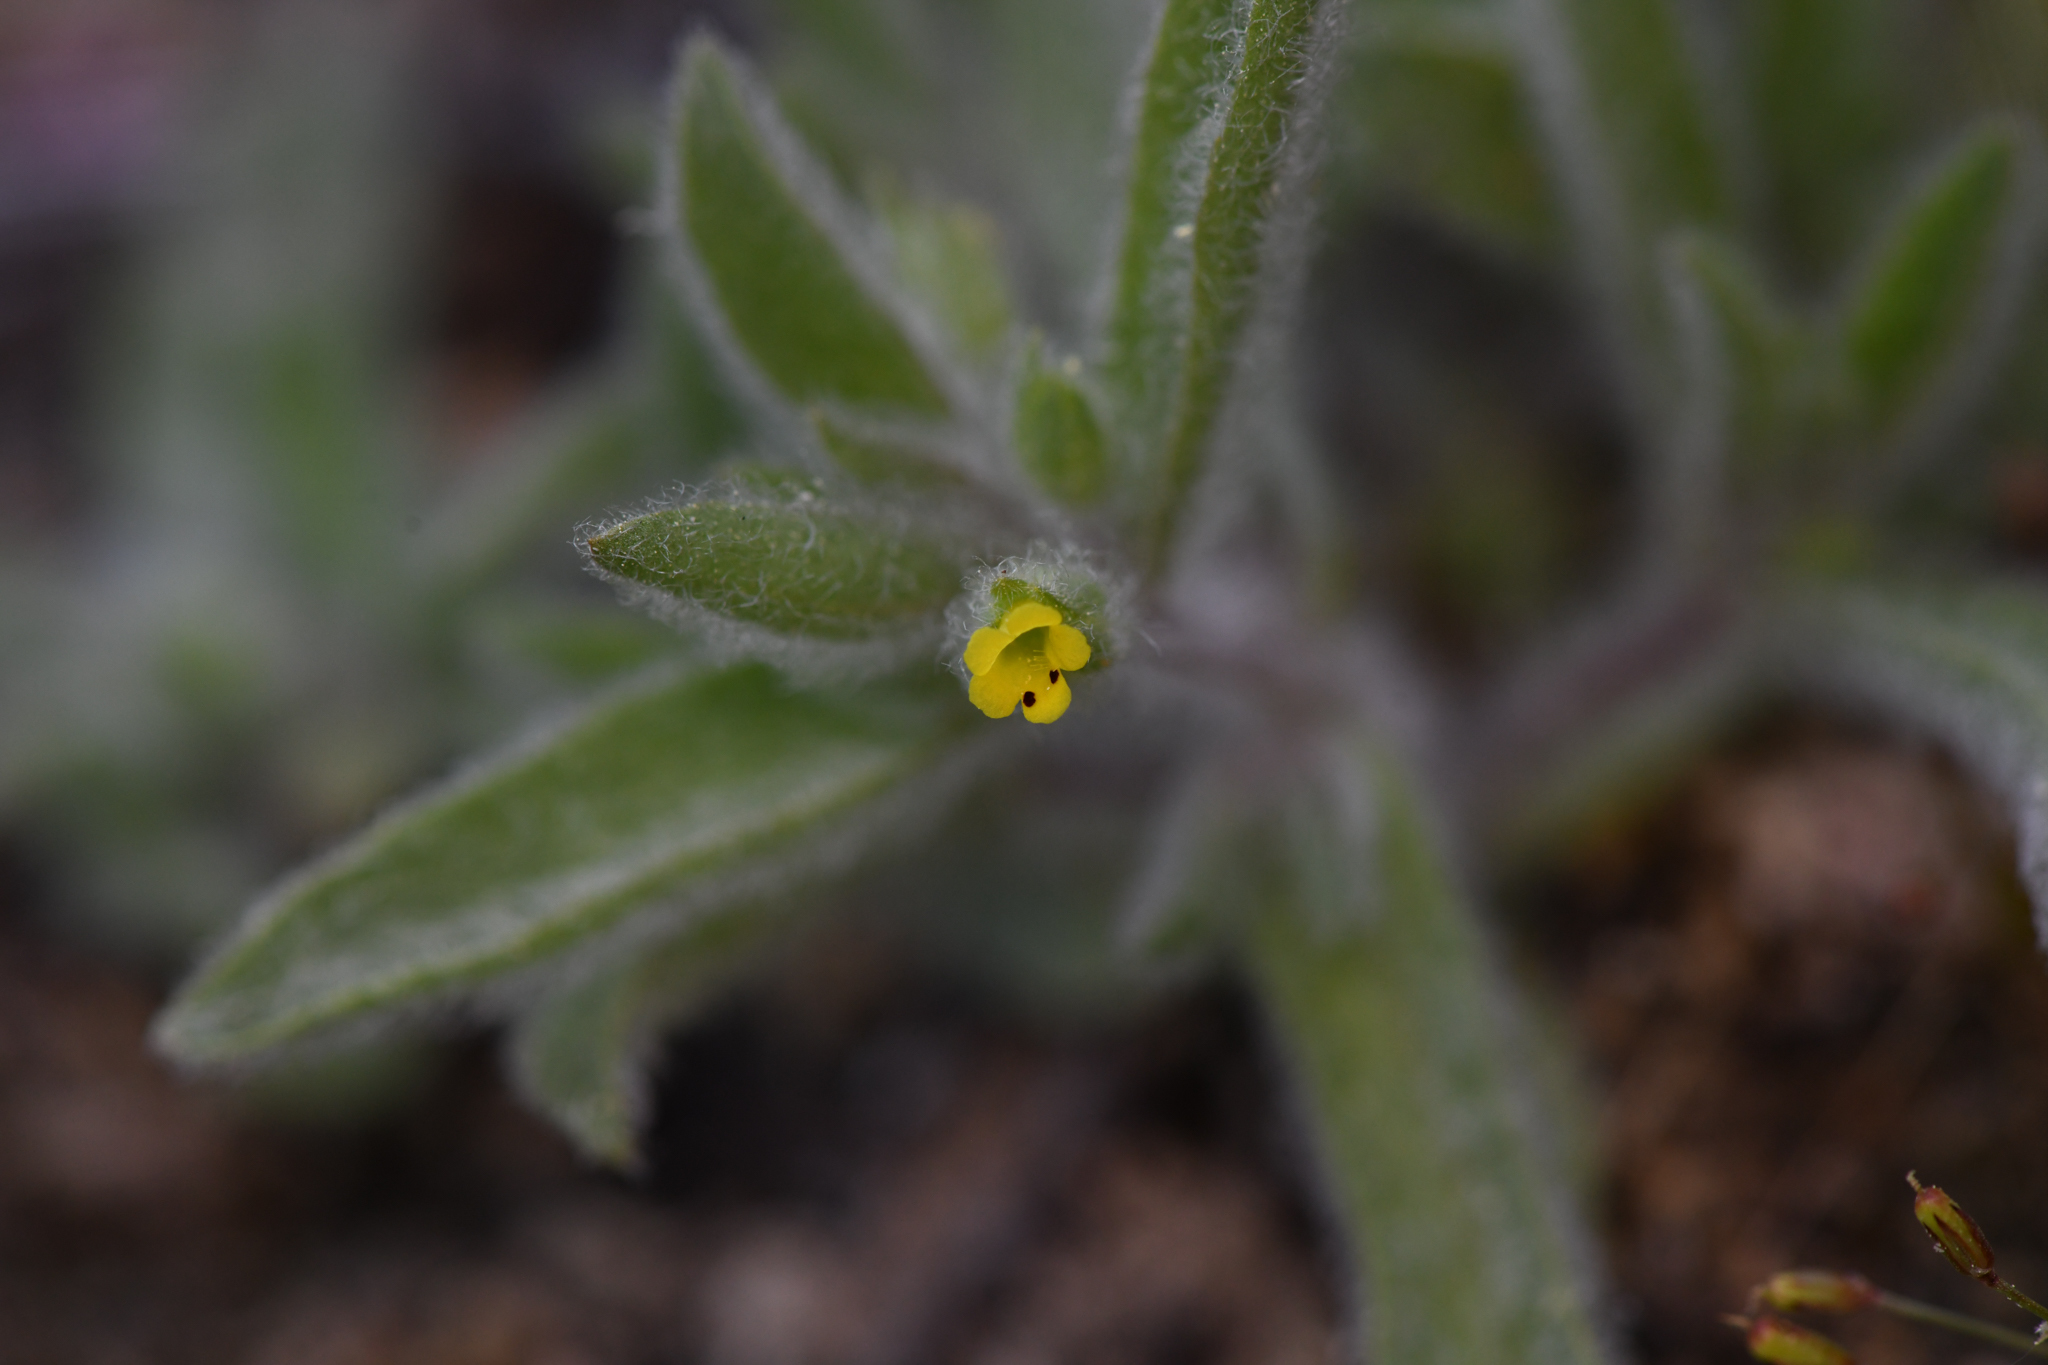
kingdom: Plantae
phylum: Tracheophyta
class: Magnoliopsida
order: Lamiales
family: Phrymaceae
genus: Mimetanthe
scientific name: Mimetanthe pilosa
